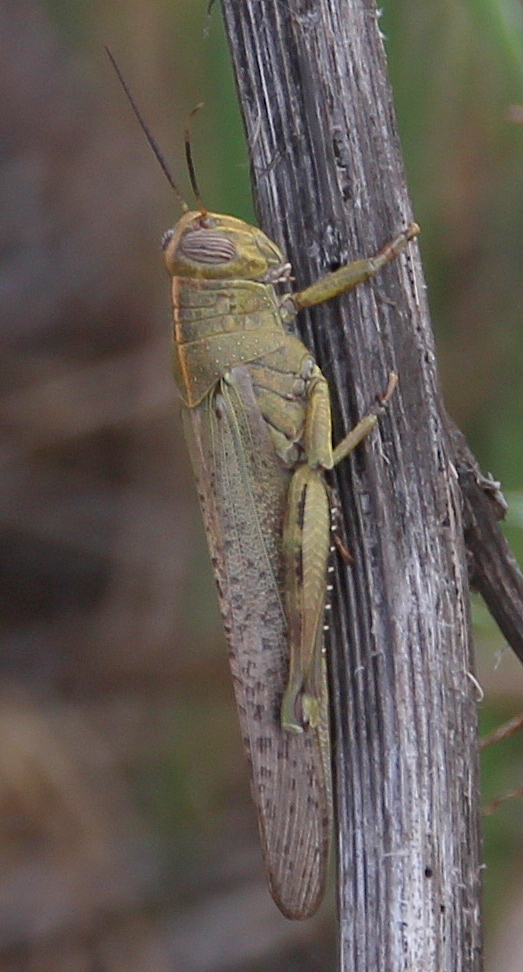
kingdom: Animalia
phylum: Arthropoda
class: Insecta
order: Orthoptera
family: Acrididae
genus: Anacridium
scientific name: Anacridium aegyptium
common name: Egyptian grasshopper
